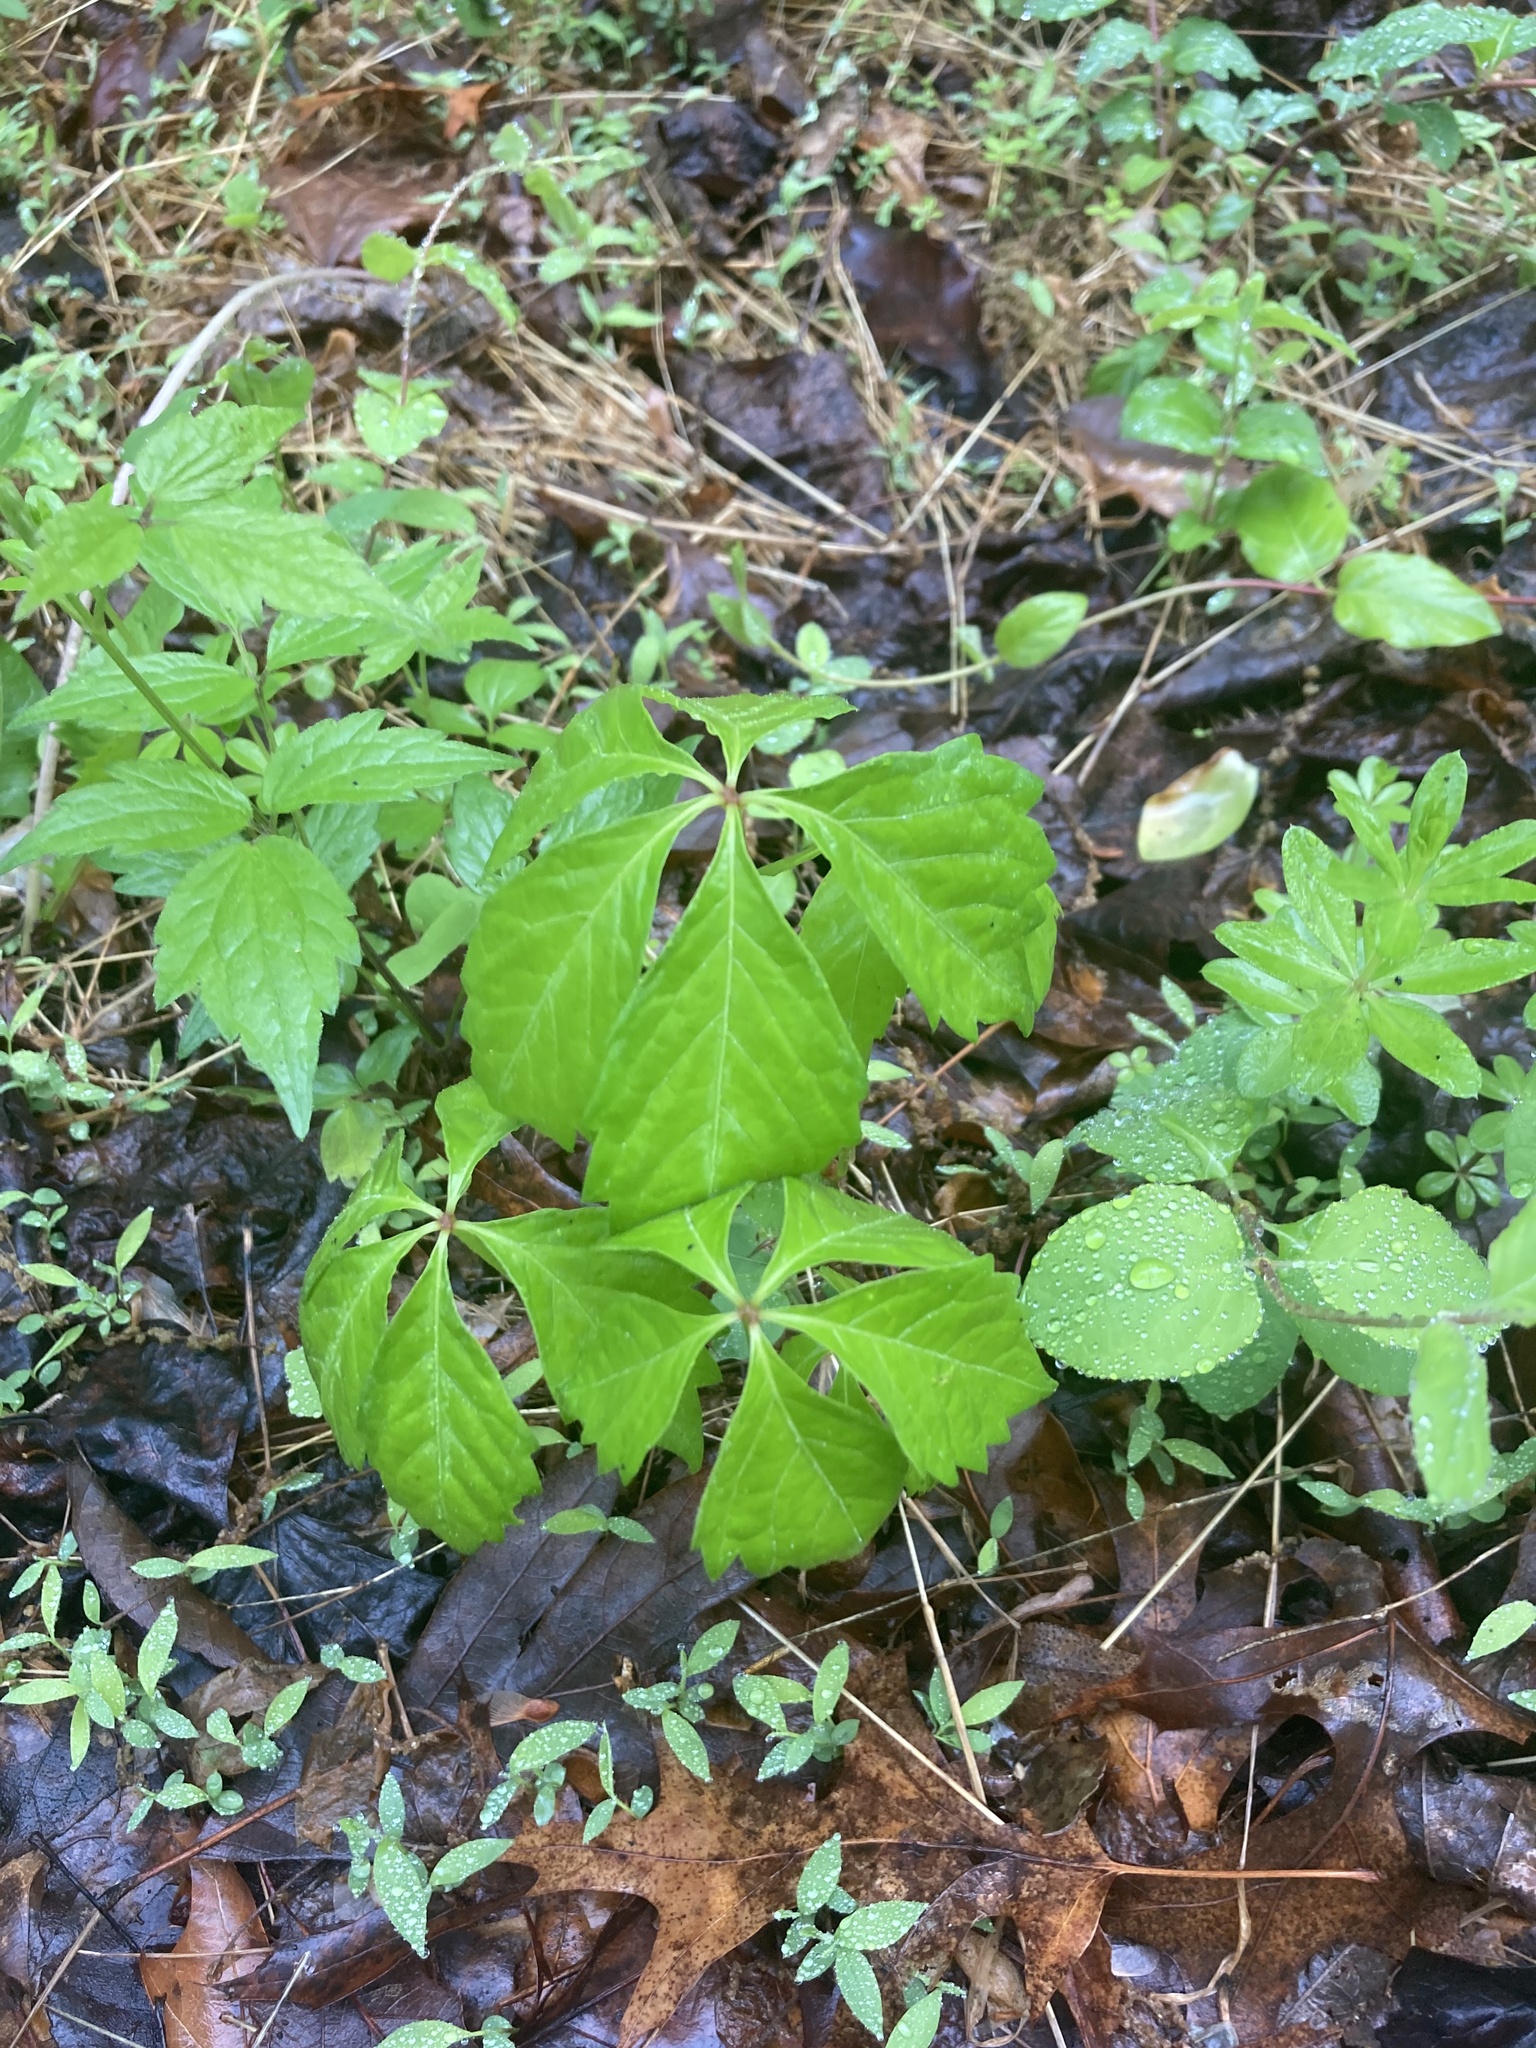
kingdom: Plantae
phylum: Tracheophyta
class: Magnoliopsida
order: Vitales
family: Vitaceae
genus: Parthenocissus
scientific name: Parthenocissus quinquefolia
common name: Virginia-creeper
